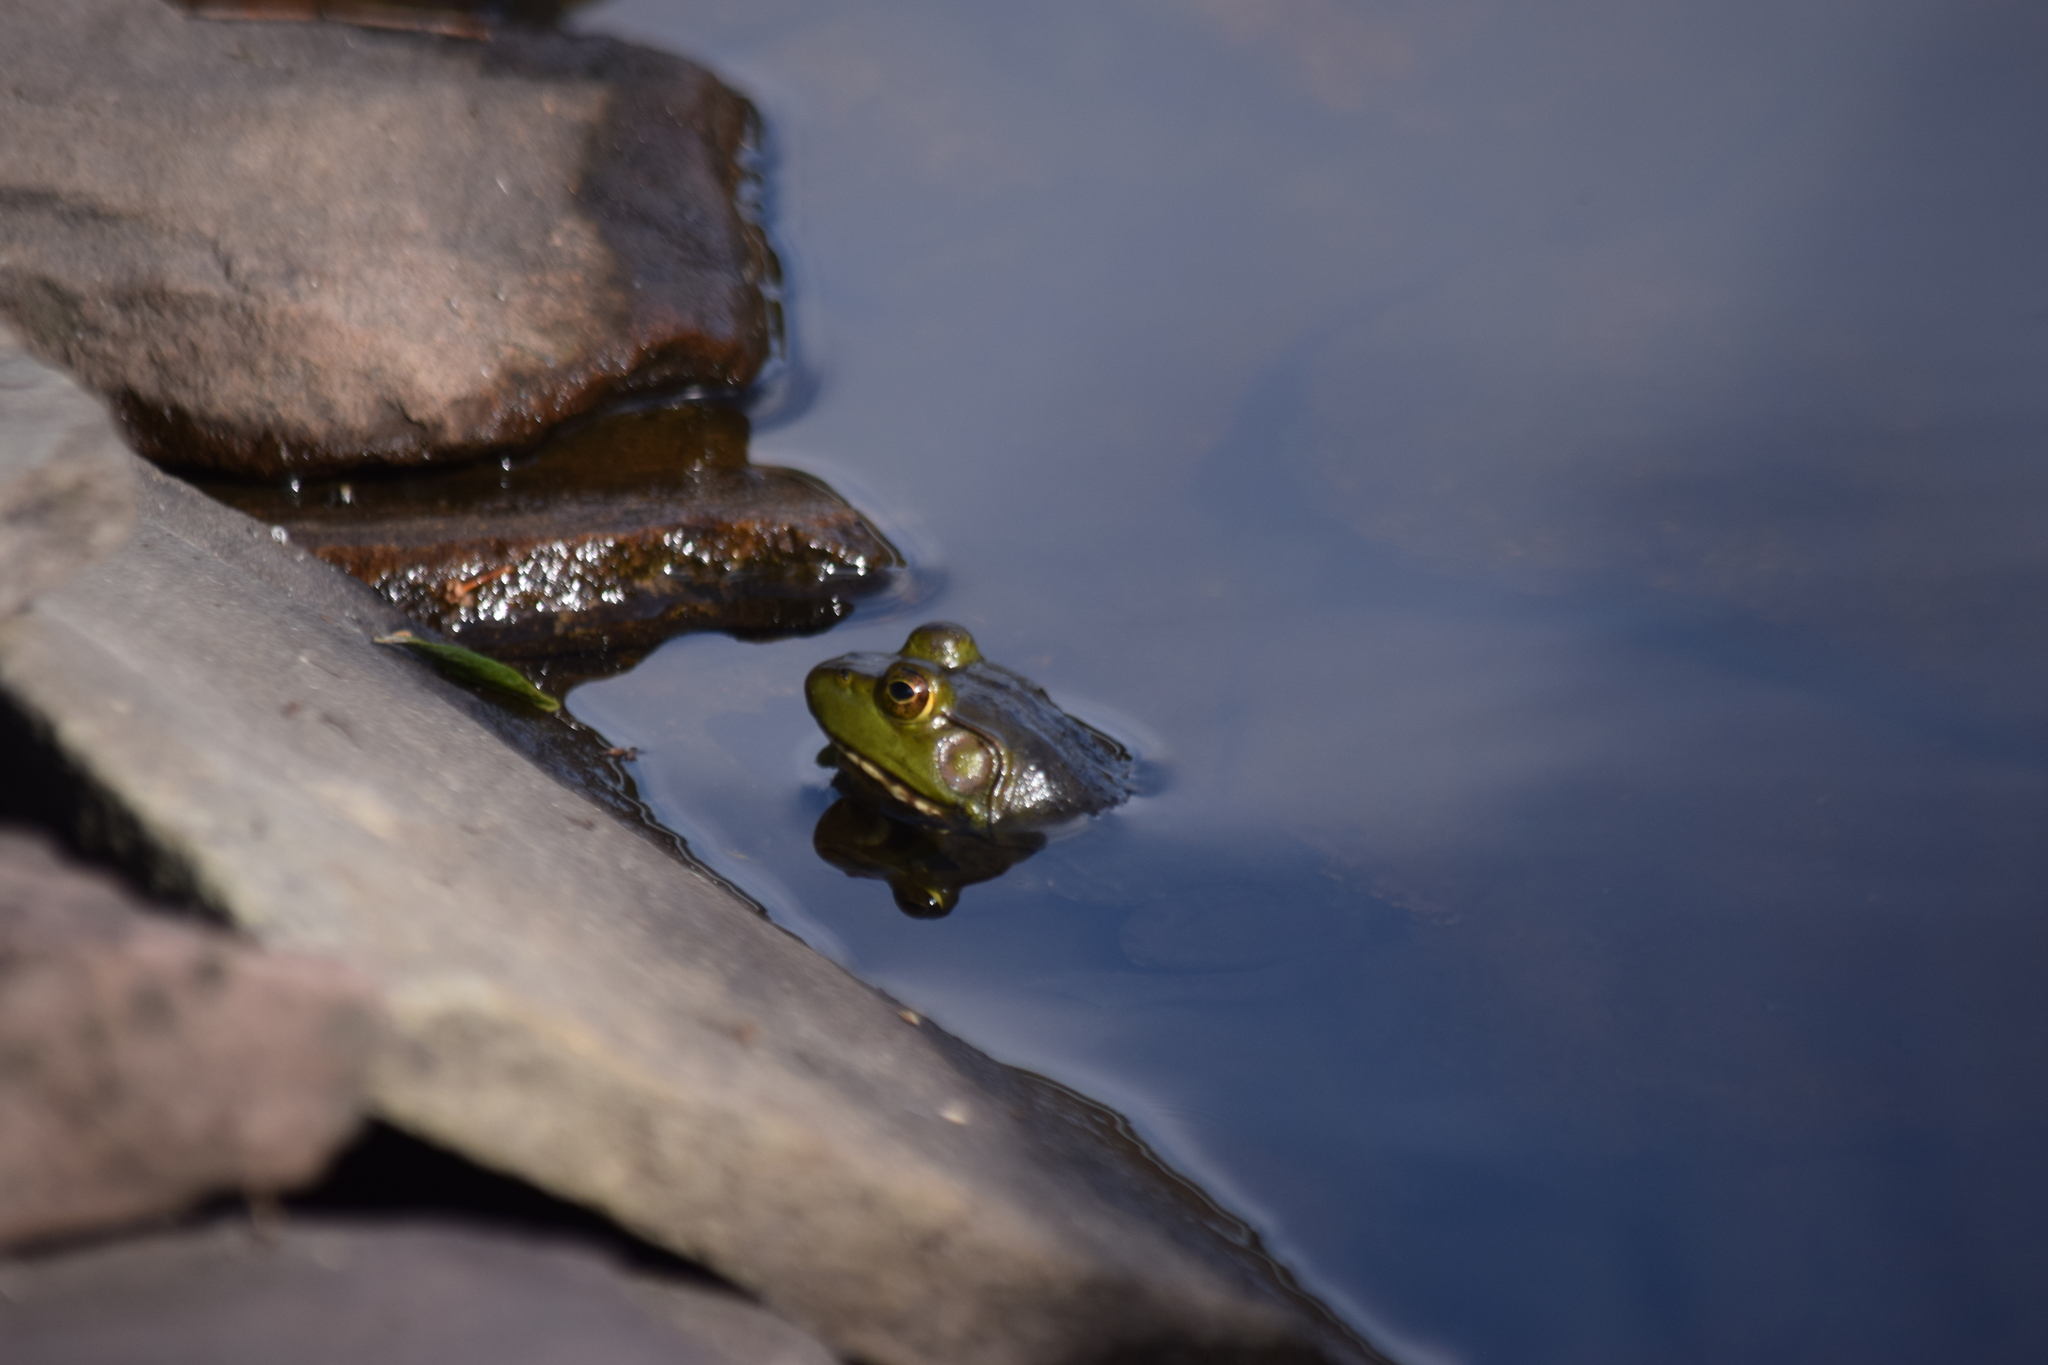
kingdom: Animalia
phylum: Chordata
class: Amphibia
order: Anura
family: Ranidae
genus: Lithobates
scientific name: Lithobates catesbeianus
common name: American bullfrog
